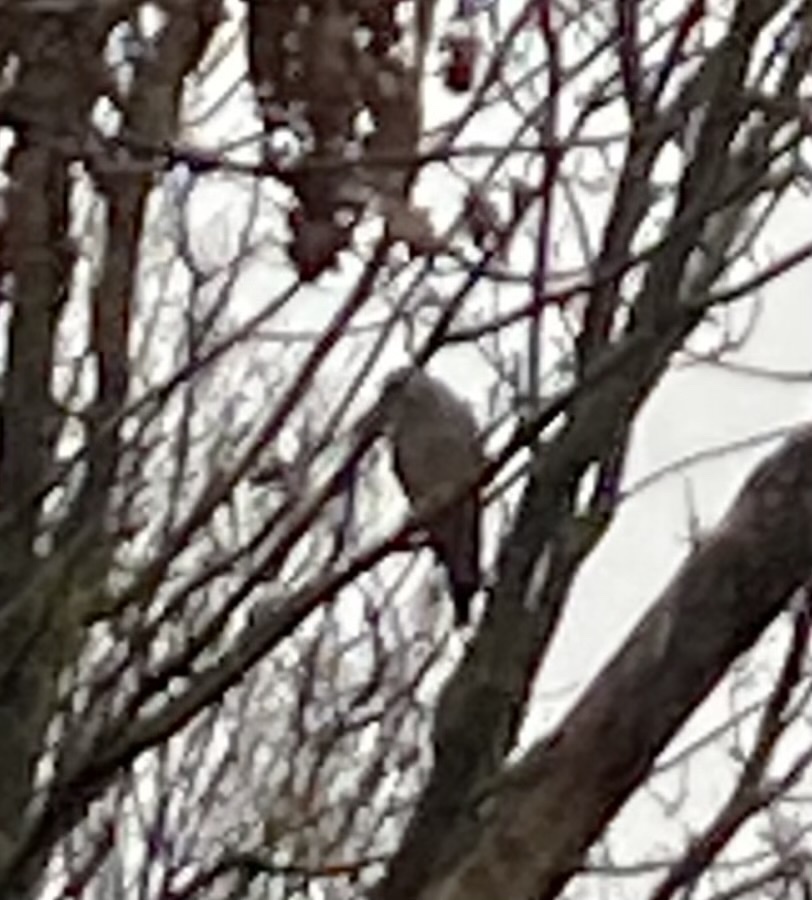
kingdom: Animalia
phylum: Chordata
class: Aves
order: Falconiformes
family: Falconidae
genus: Falco
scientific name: Falco tinnunculus
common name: Common kestrel
